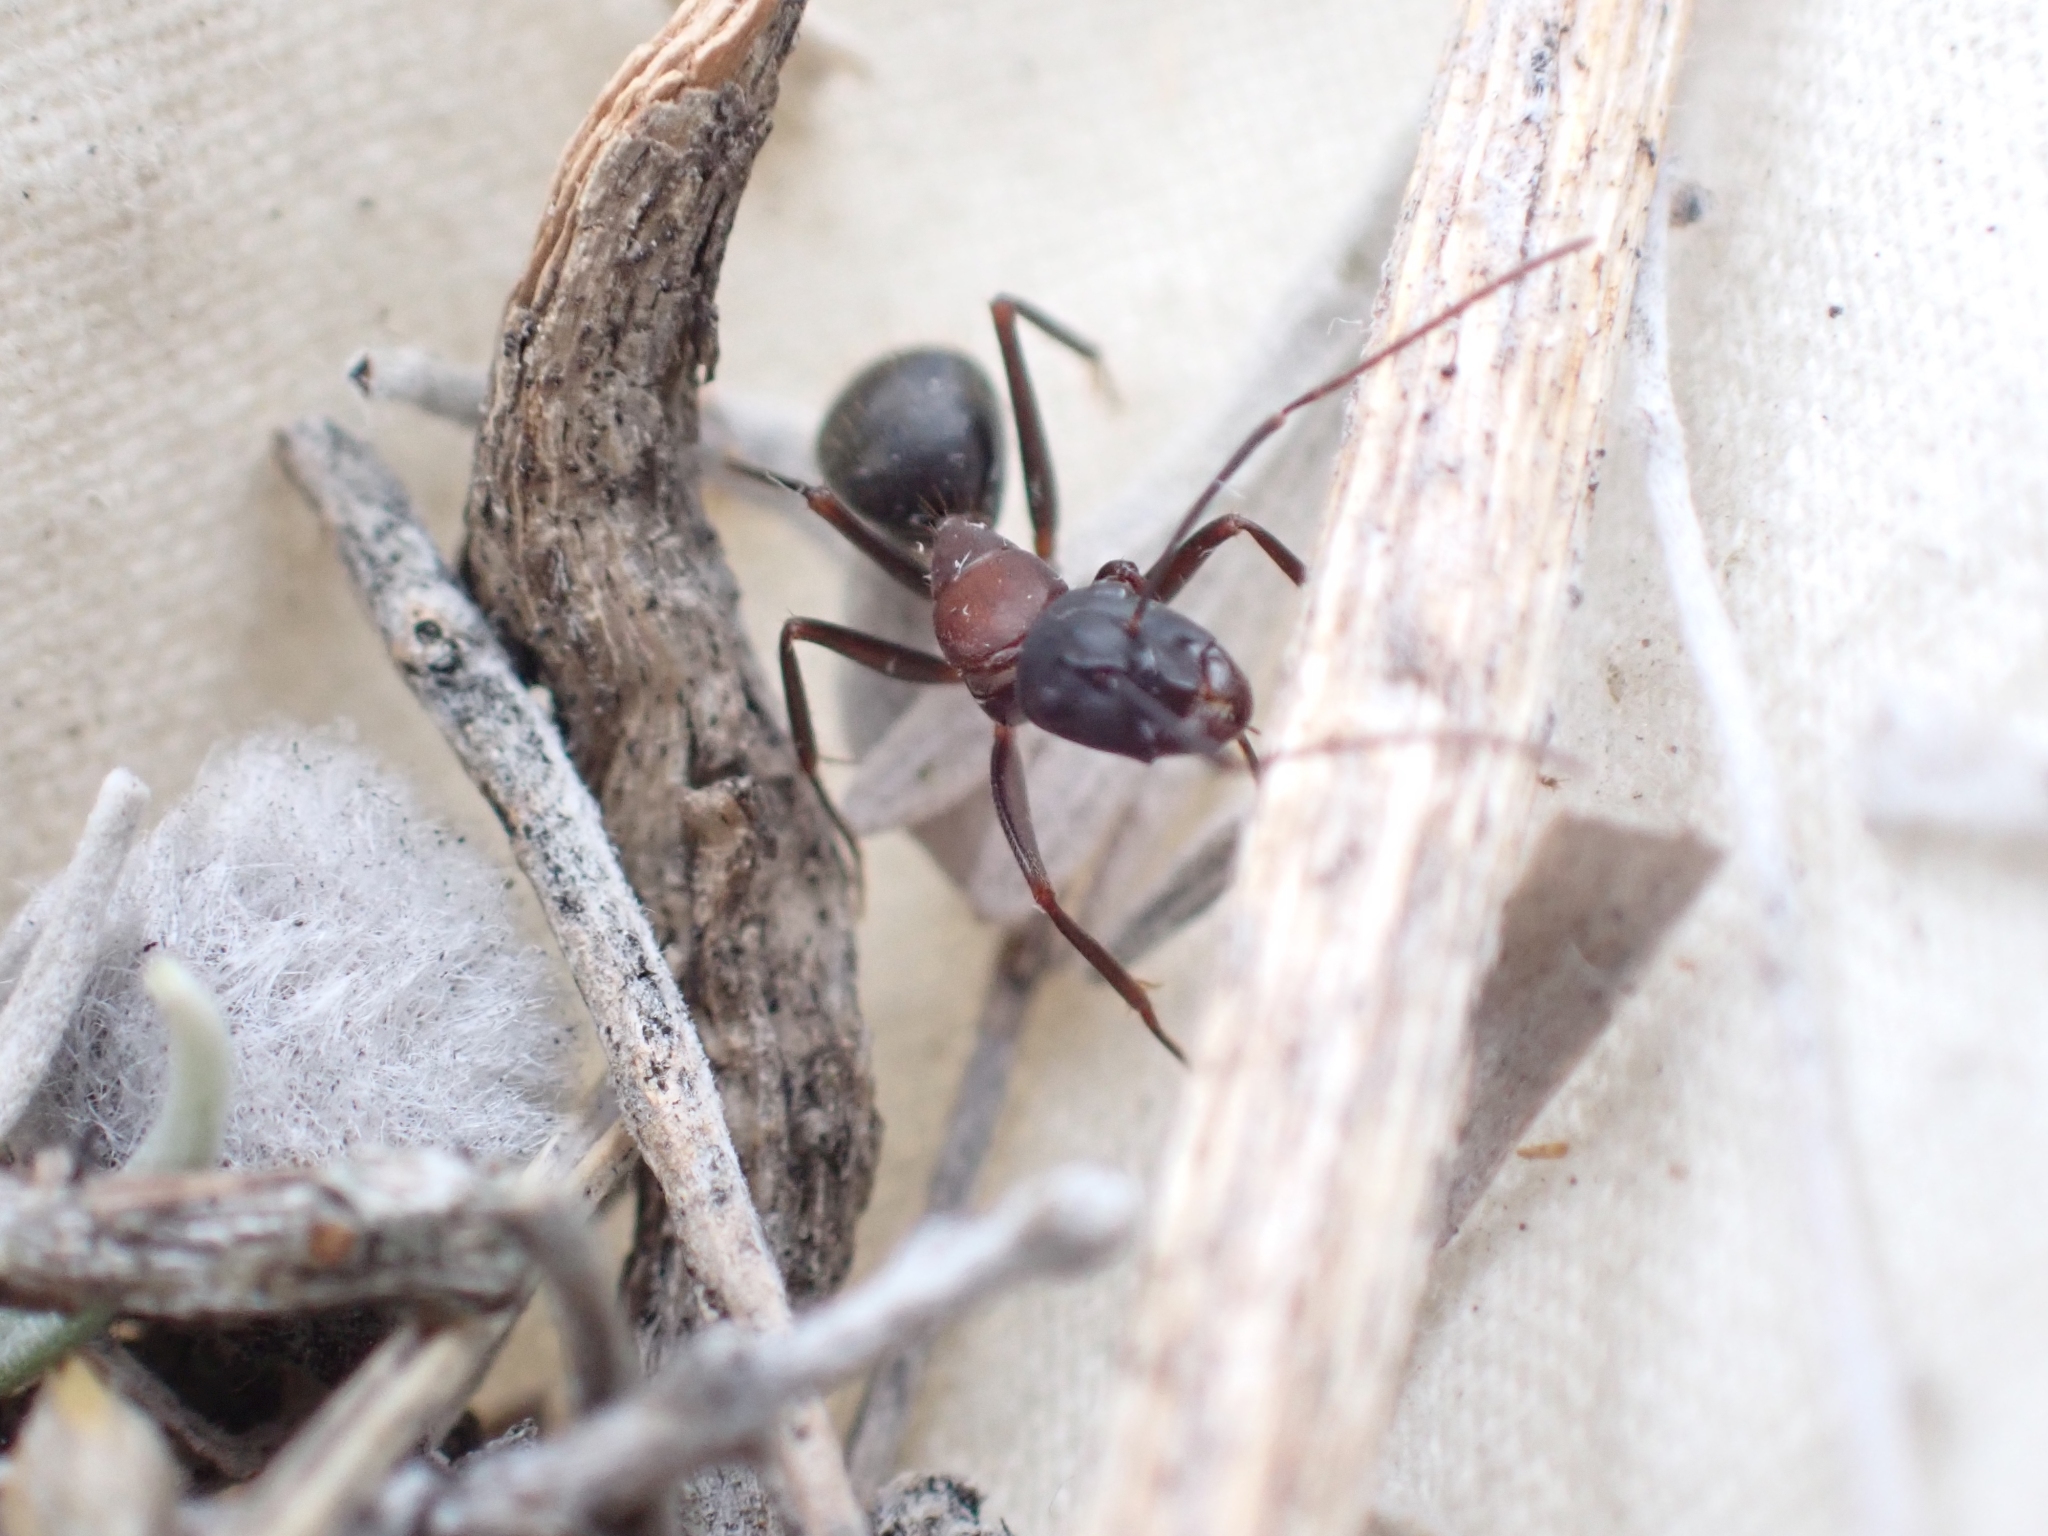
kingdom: Animalia
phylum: Arthropoda
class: Insecta
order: Hymenoptera
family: Formicidae
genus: Camponotus
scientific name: Camponotus vicinus
